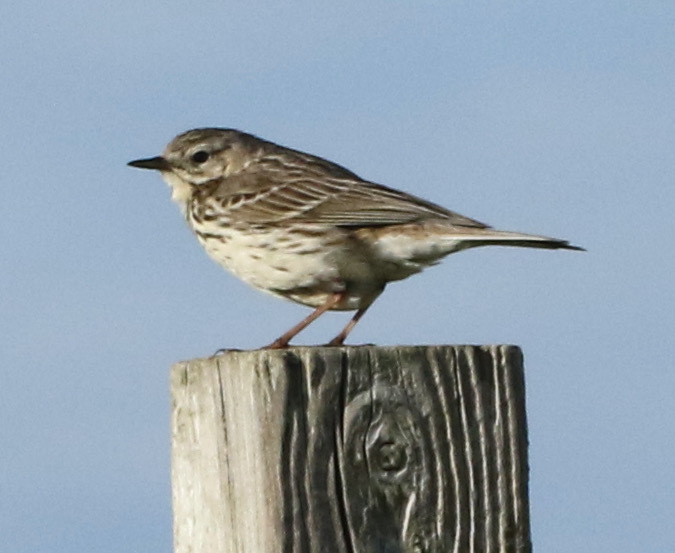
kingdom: Animalia
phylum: Chordata
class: Aves
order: Passeriformes
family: Motacillidae
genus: Anthus
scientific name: Anthus pratensis
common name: Meadow pipit
